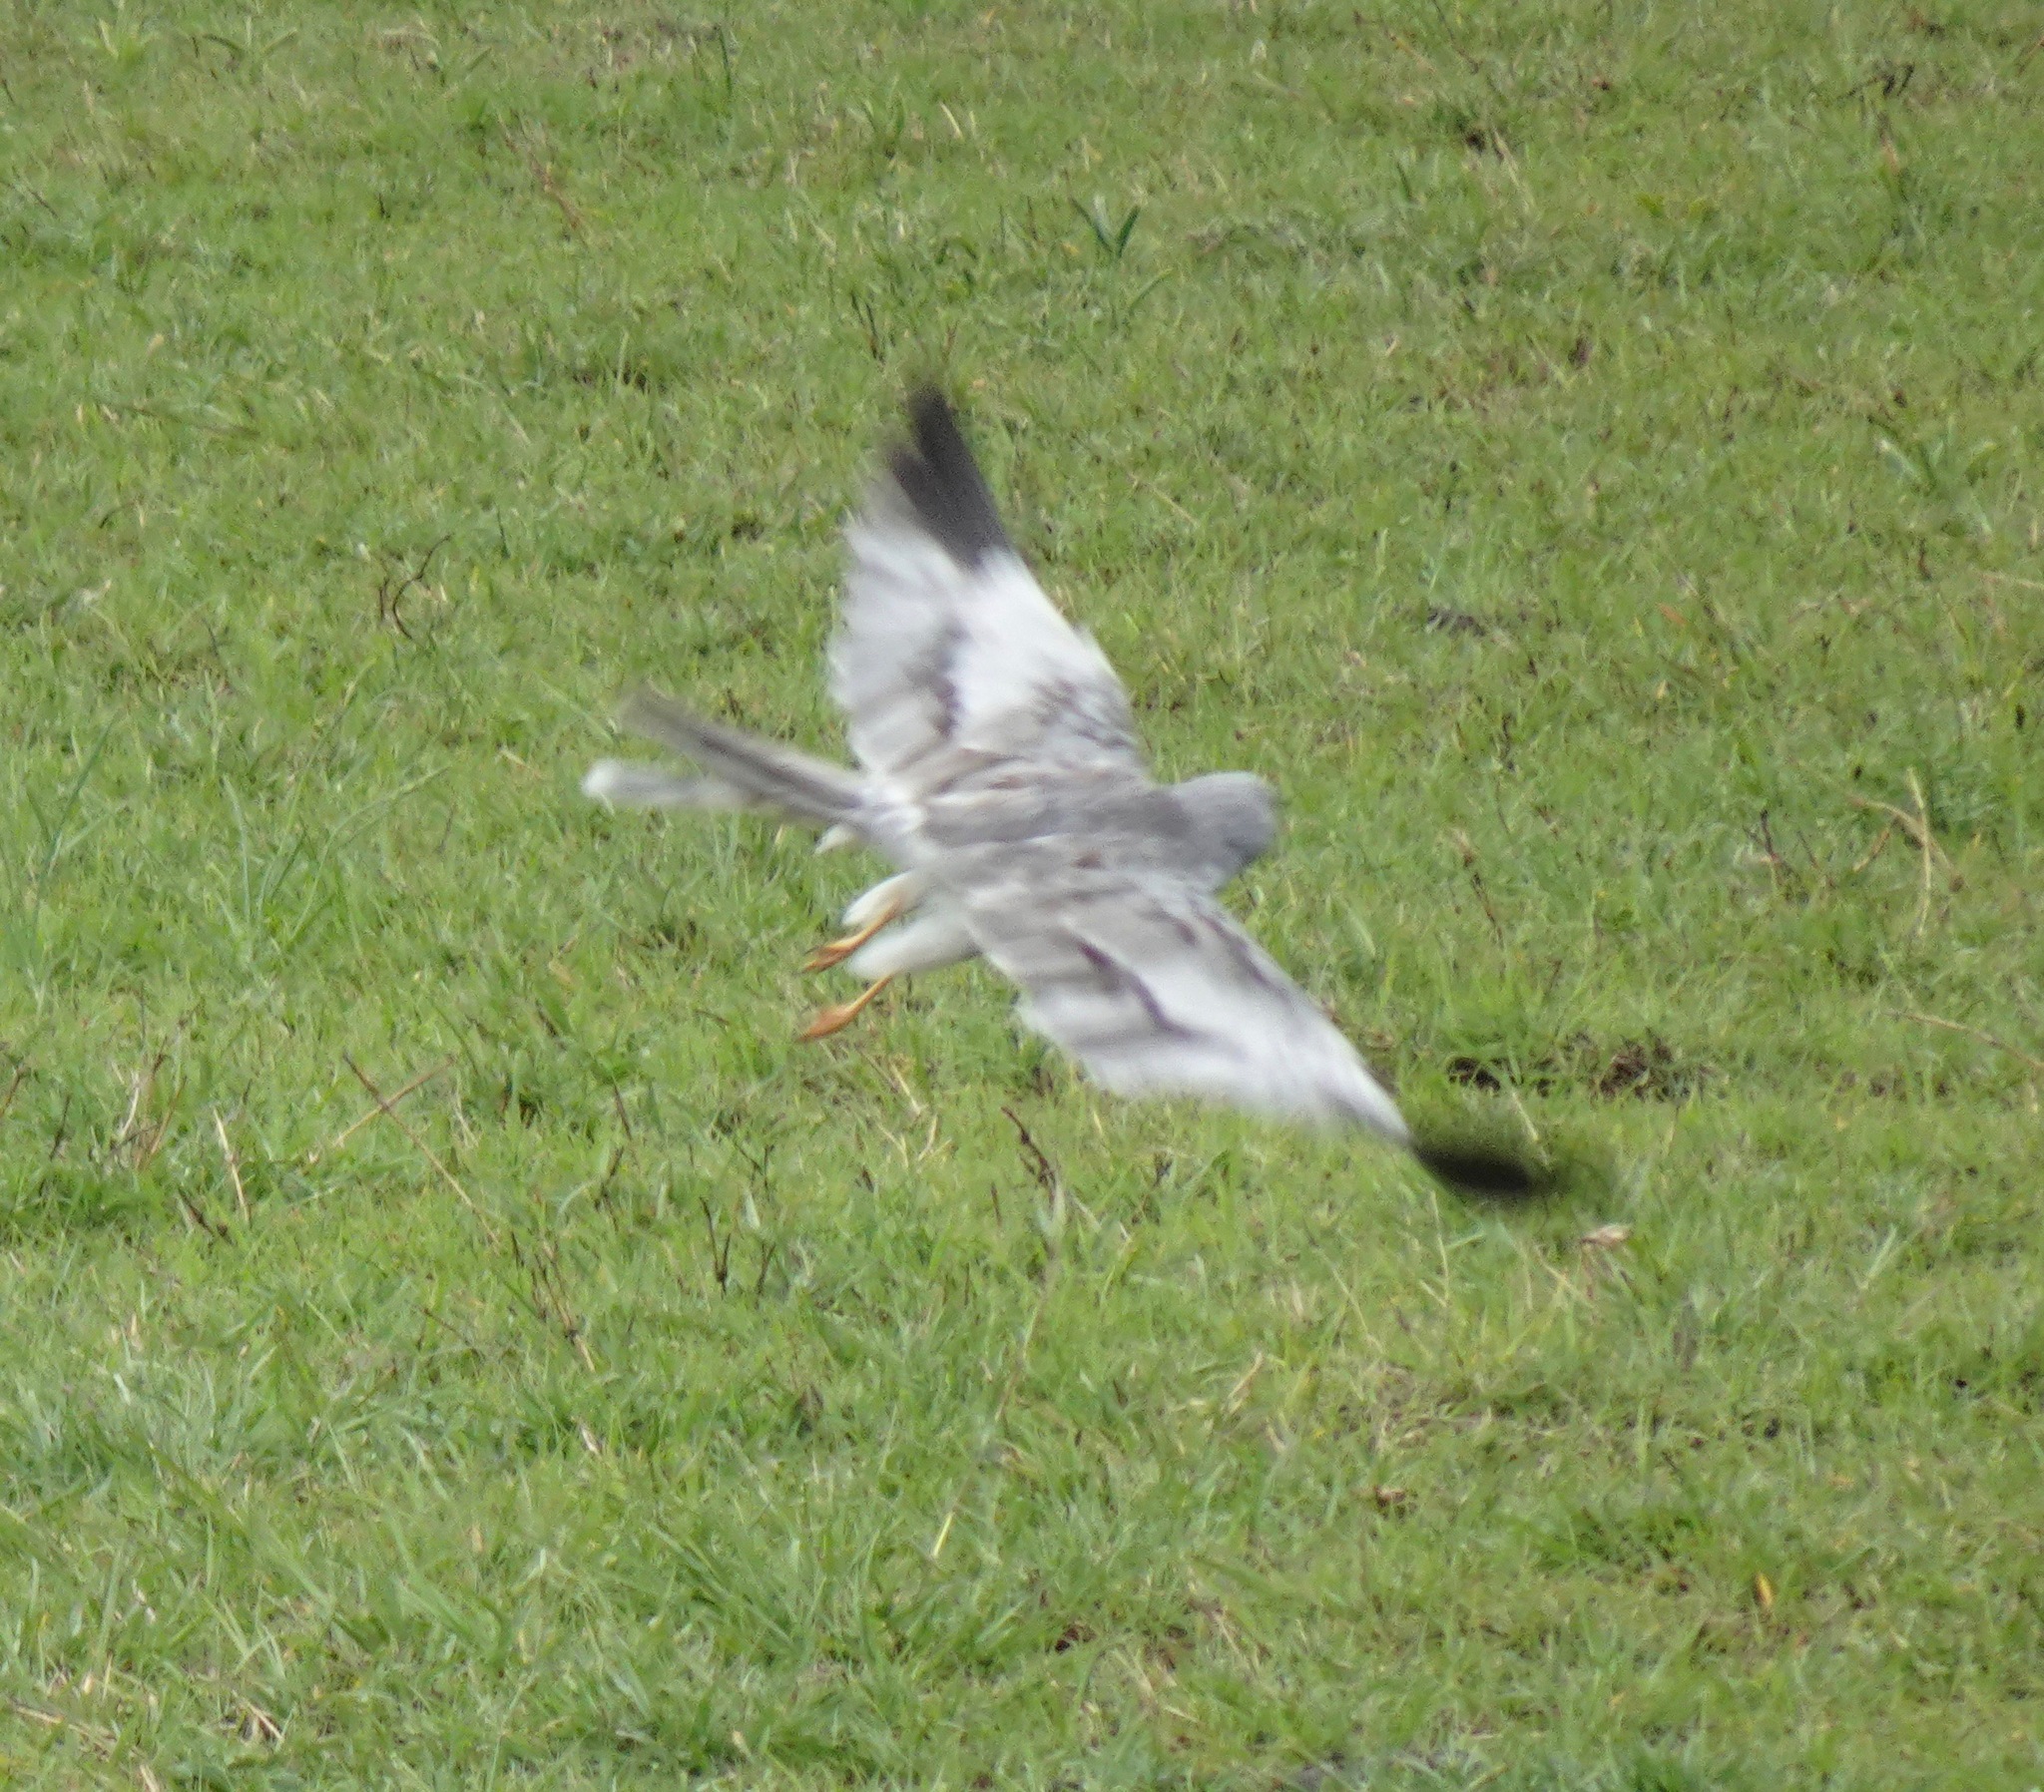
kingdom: Animalia
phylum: Chordata
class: Aves
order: Accipitriformes
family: Accipitridae
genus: Circus
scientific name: Circus pygargus
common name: Montagu's harrier
